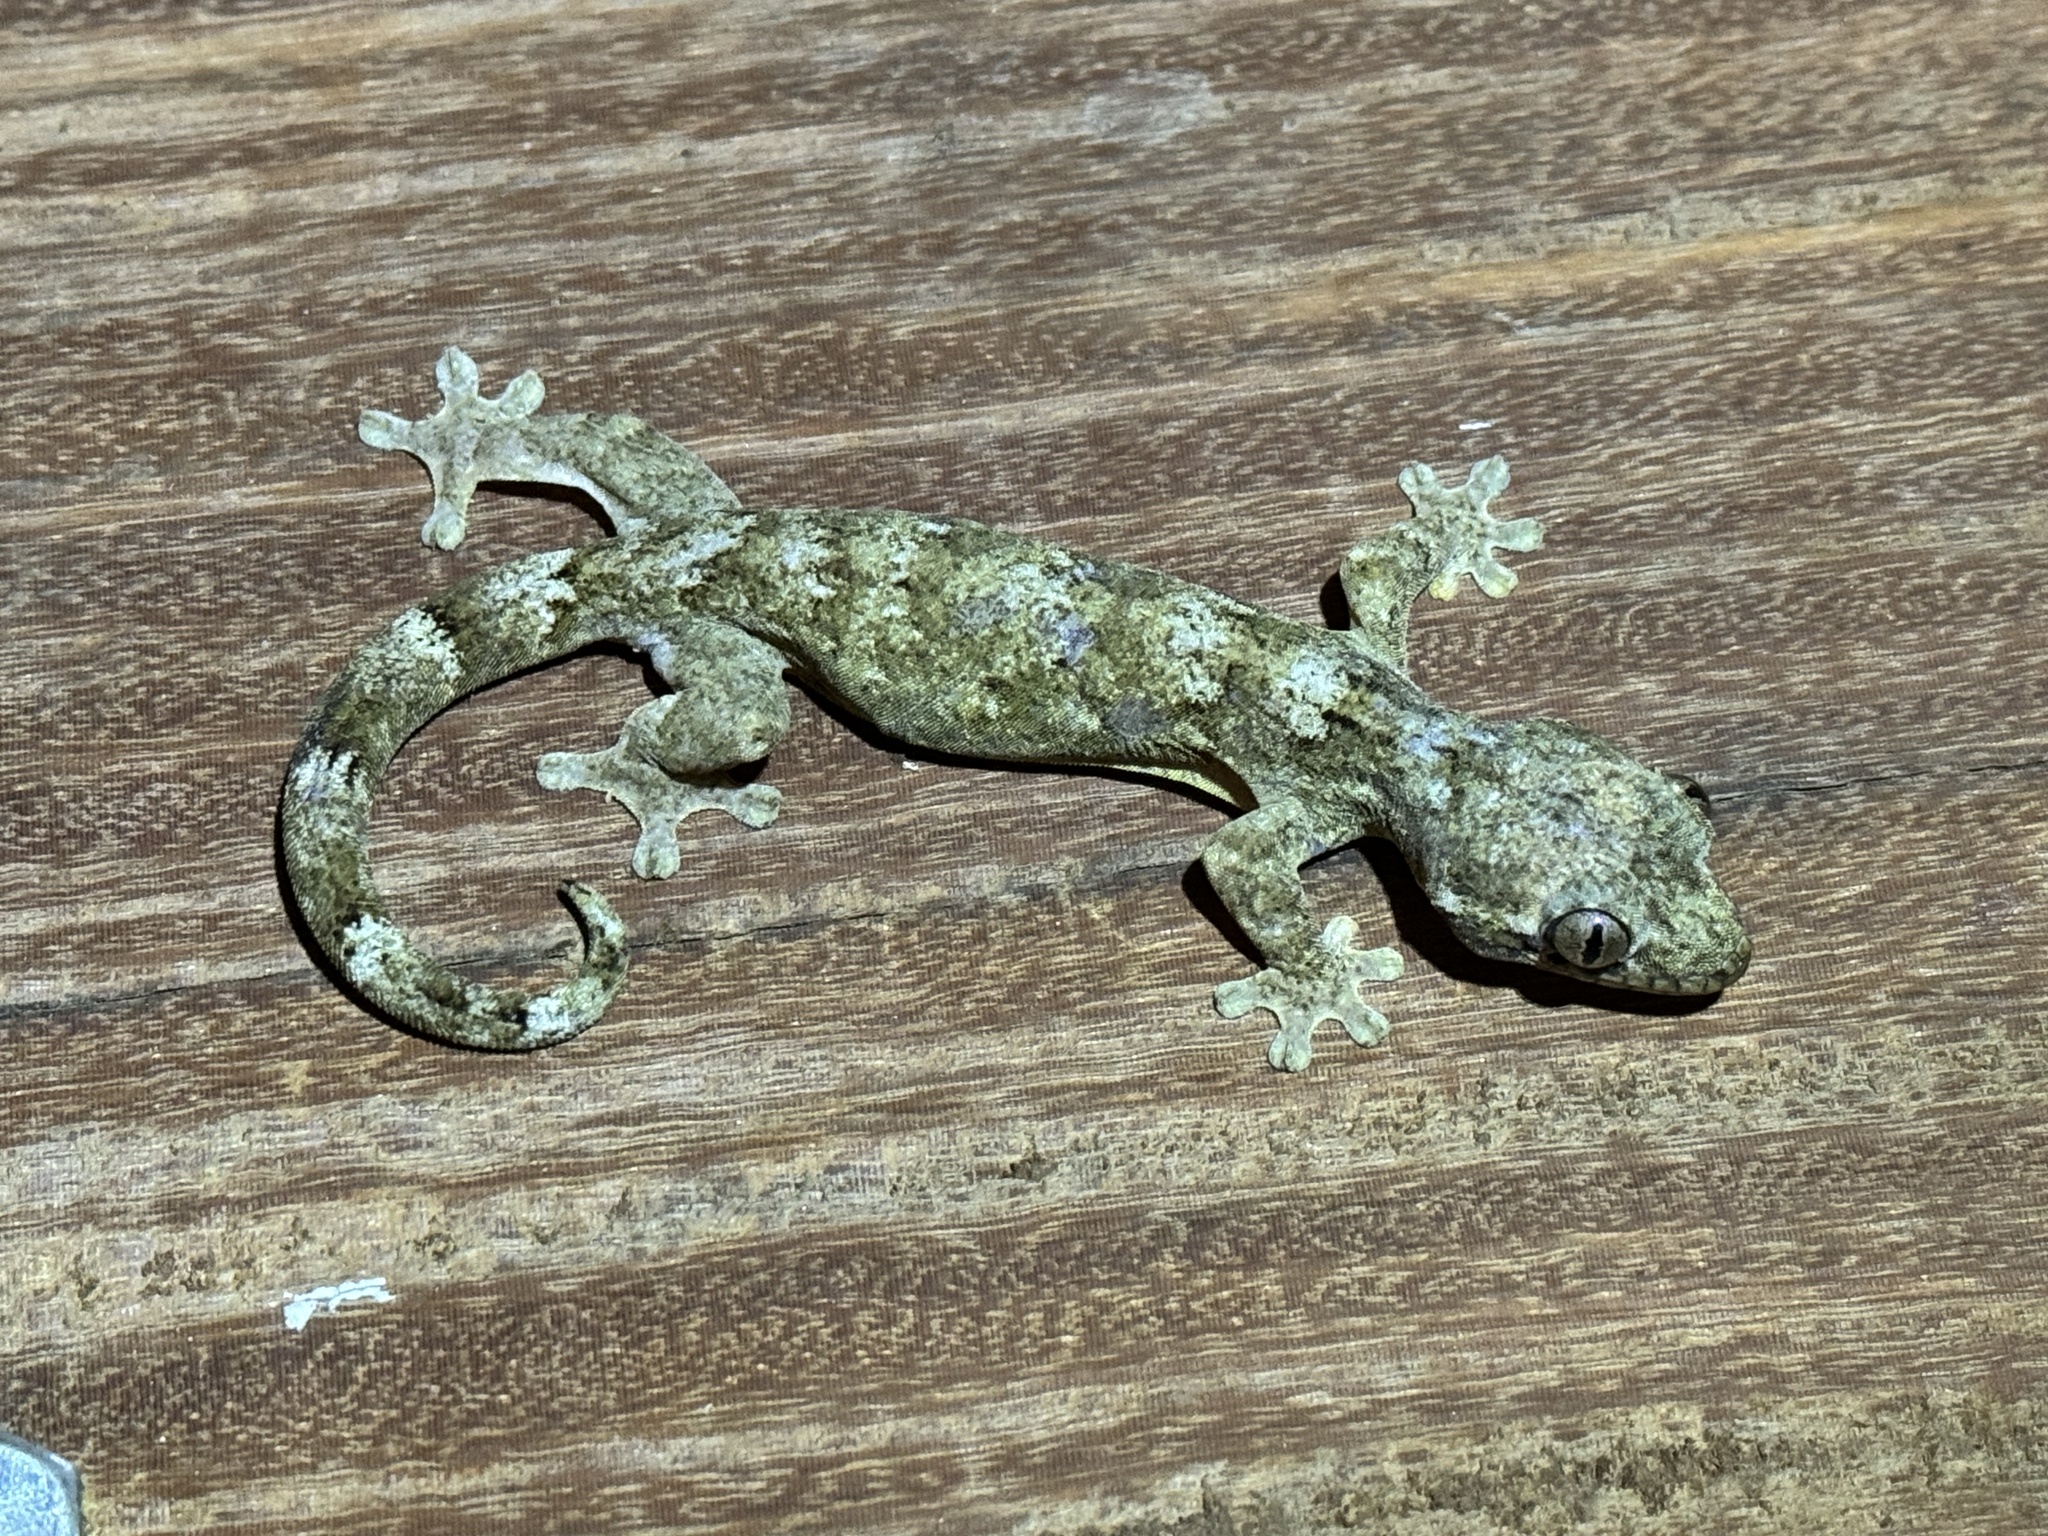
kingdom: Animalia
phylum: Chordata
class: Squamata
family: Phyllodactylidae
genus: Thecadactylus
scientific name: Thecadactylus rapicauda
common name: Turnip-tailed gecko
